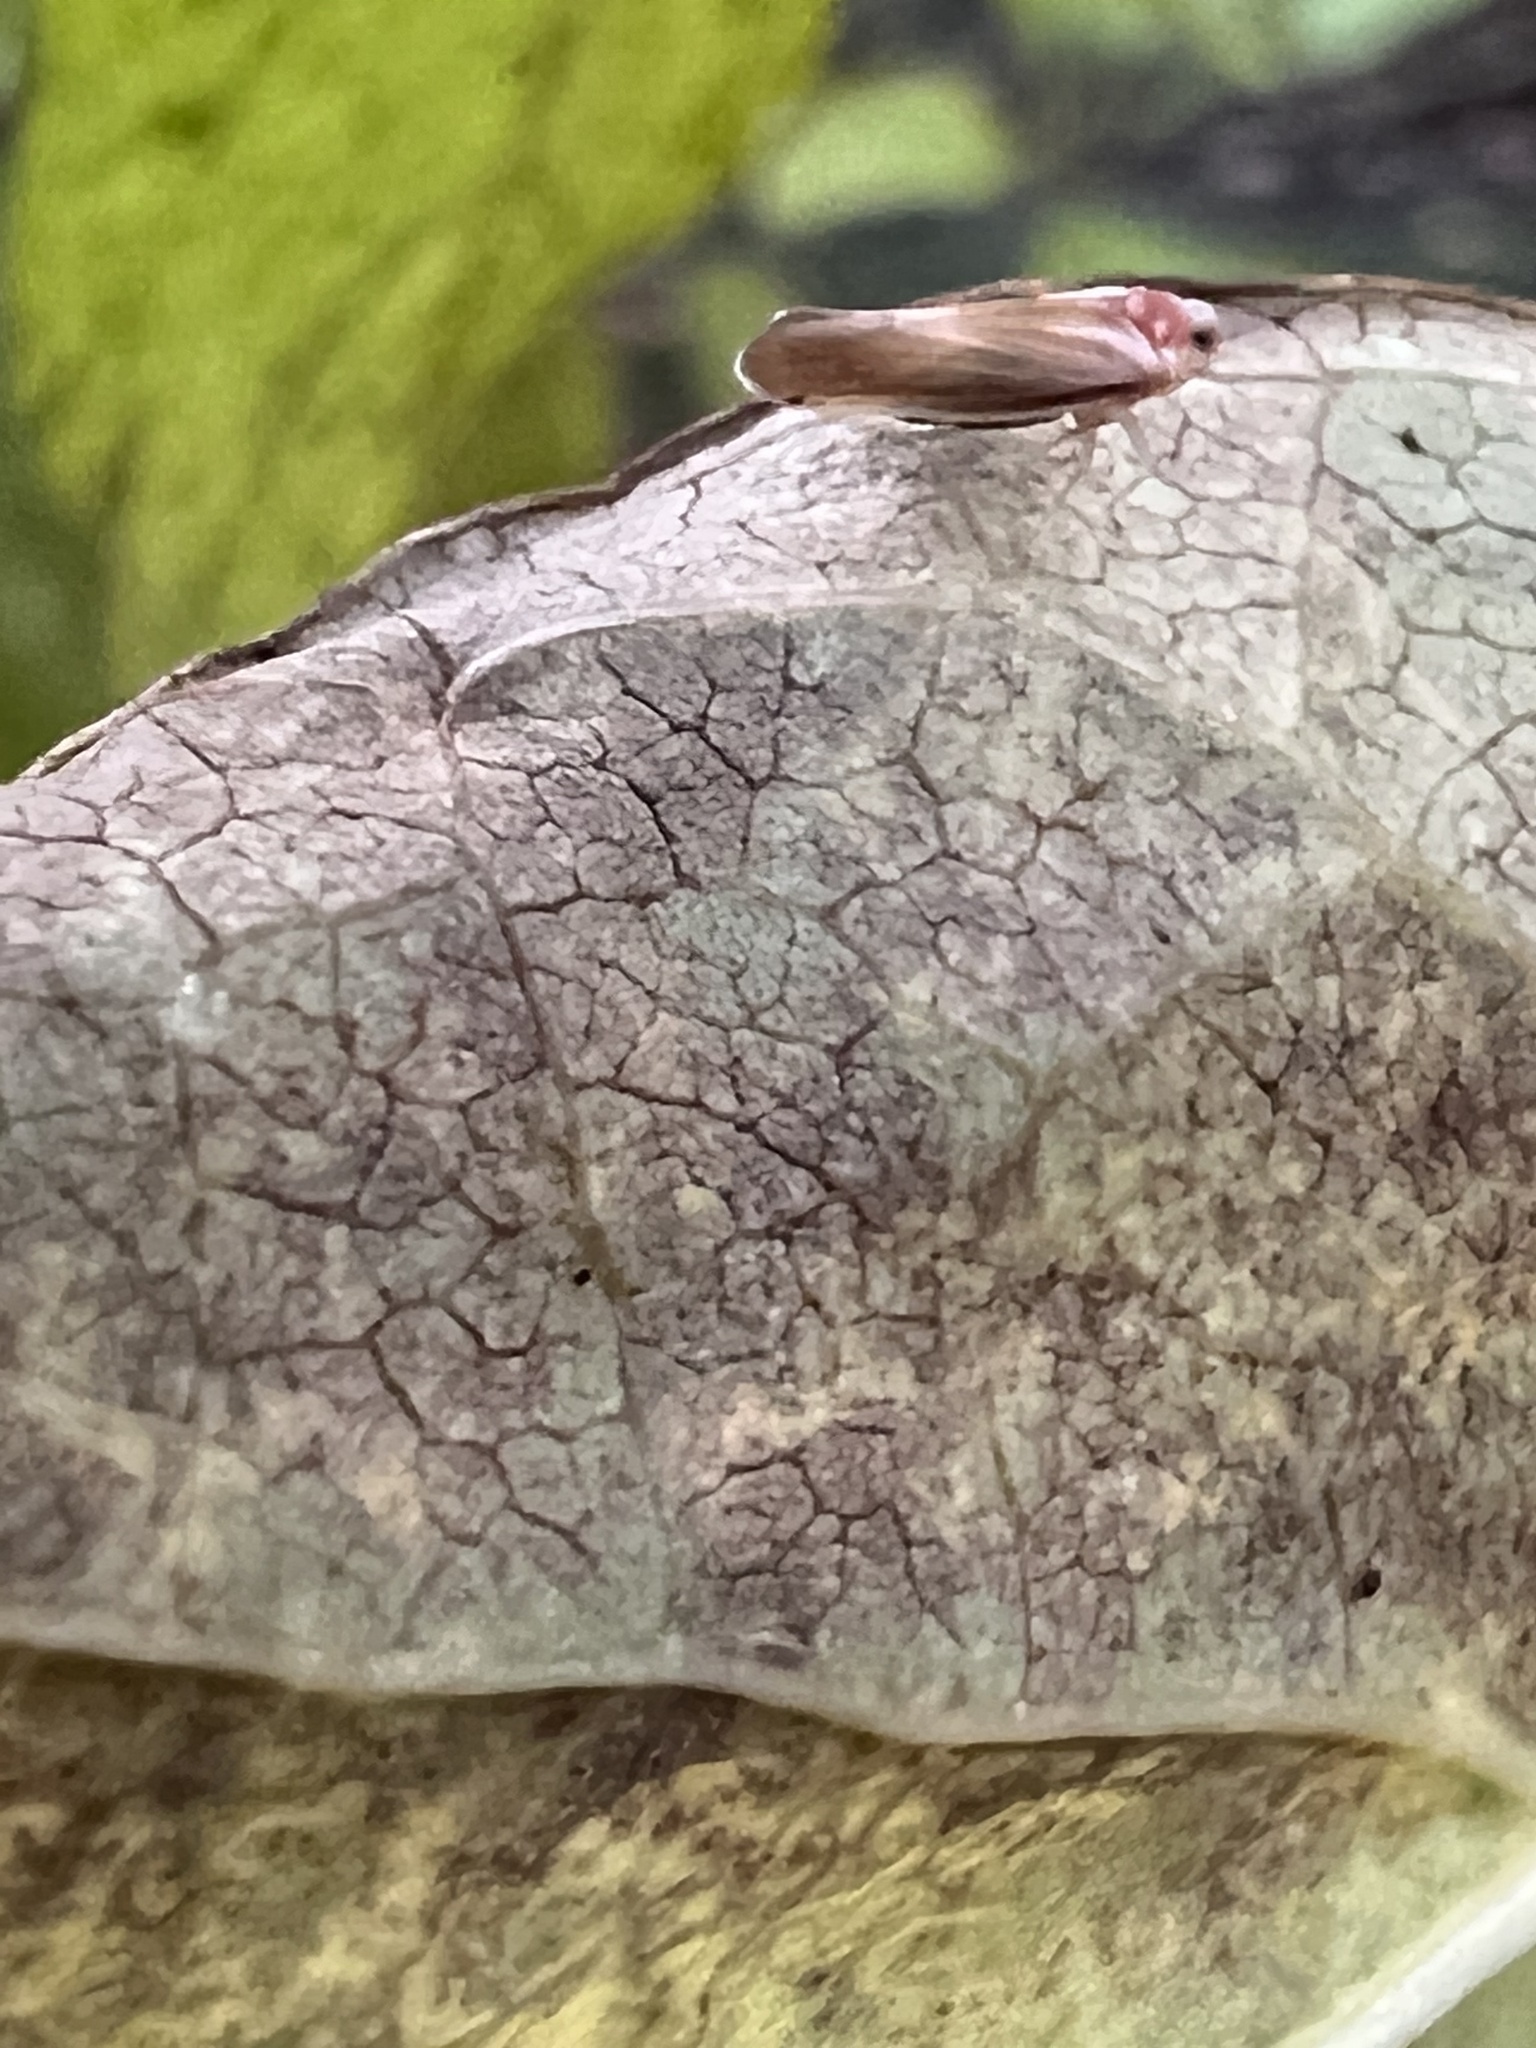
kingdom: Animalia
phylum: Arthropoda
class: Insecta
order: Hemiptera
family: Derbidae
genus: Omolicna
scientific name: Omolicna uhleri
